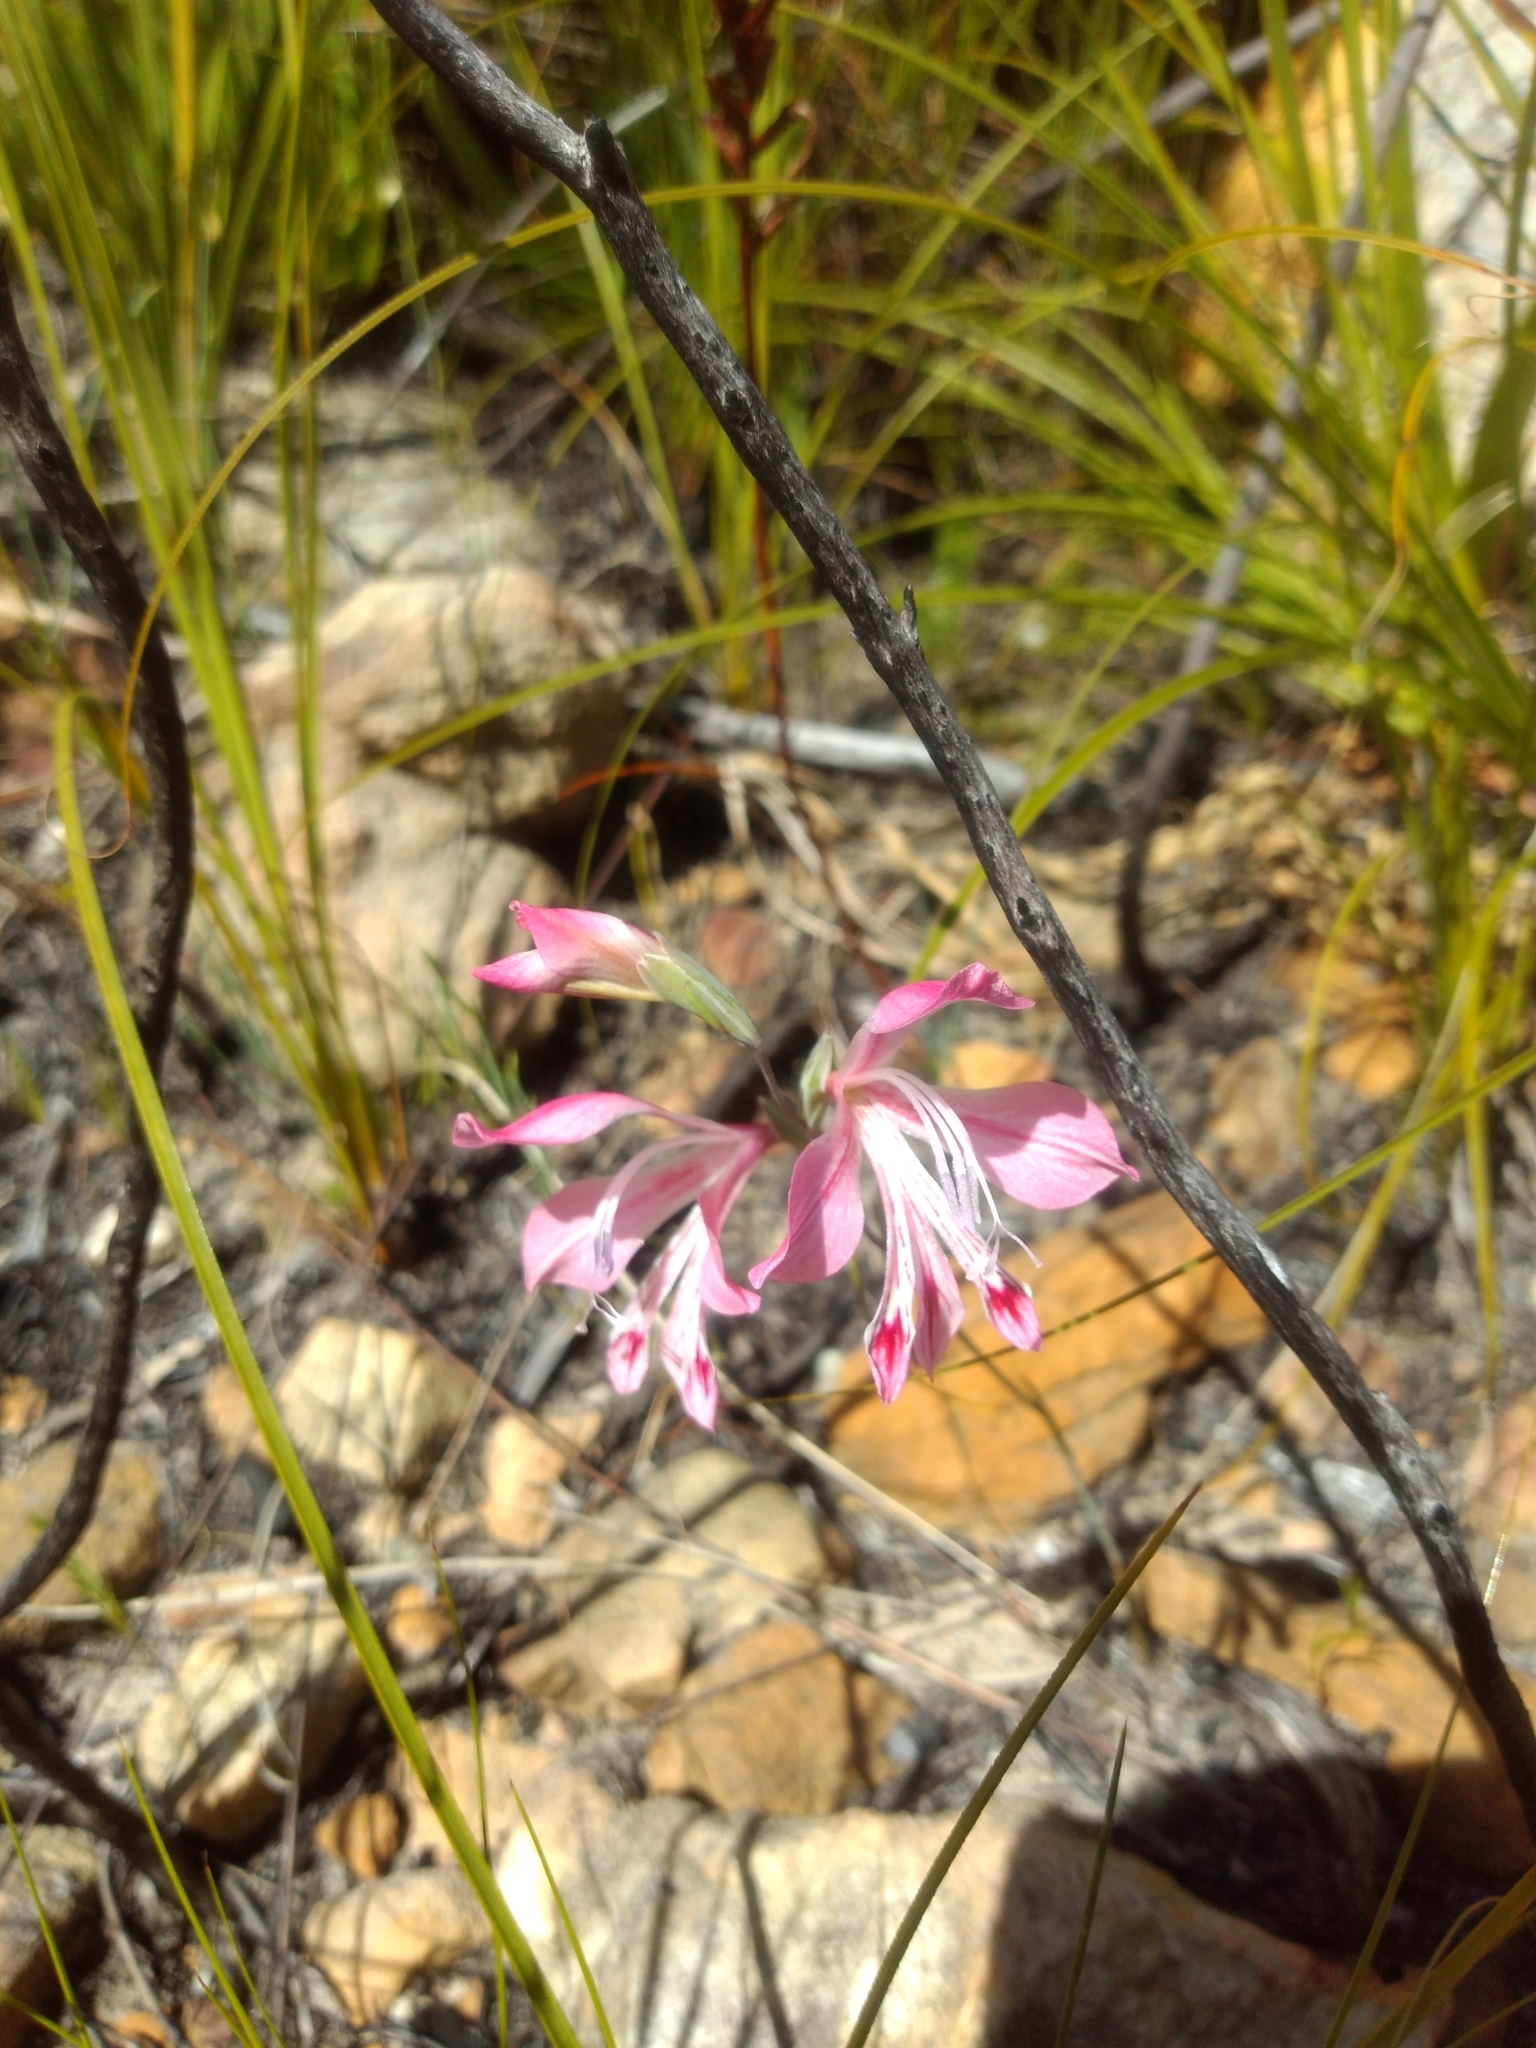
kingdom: Plantae
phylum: Tracheophyta
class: Liliopsida
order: Asparagales
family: Iridaceae
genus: Gladiolus
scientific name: Gladiolus brevifolius
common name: March pypie
